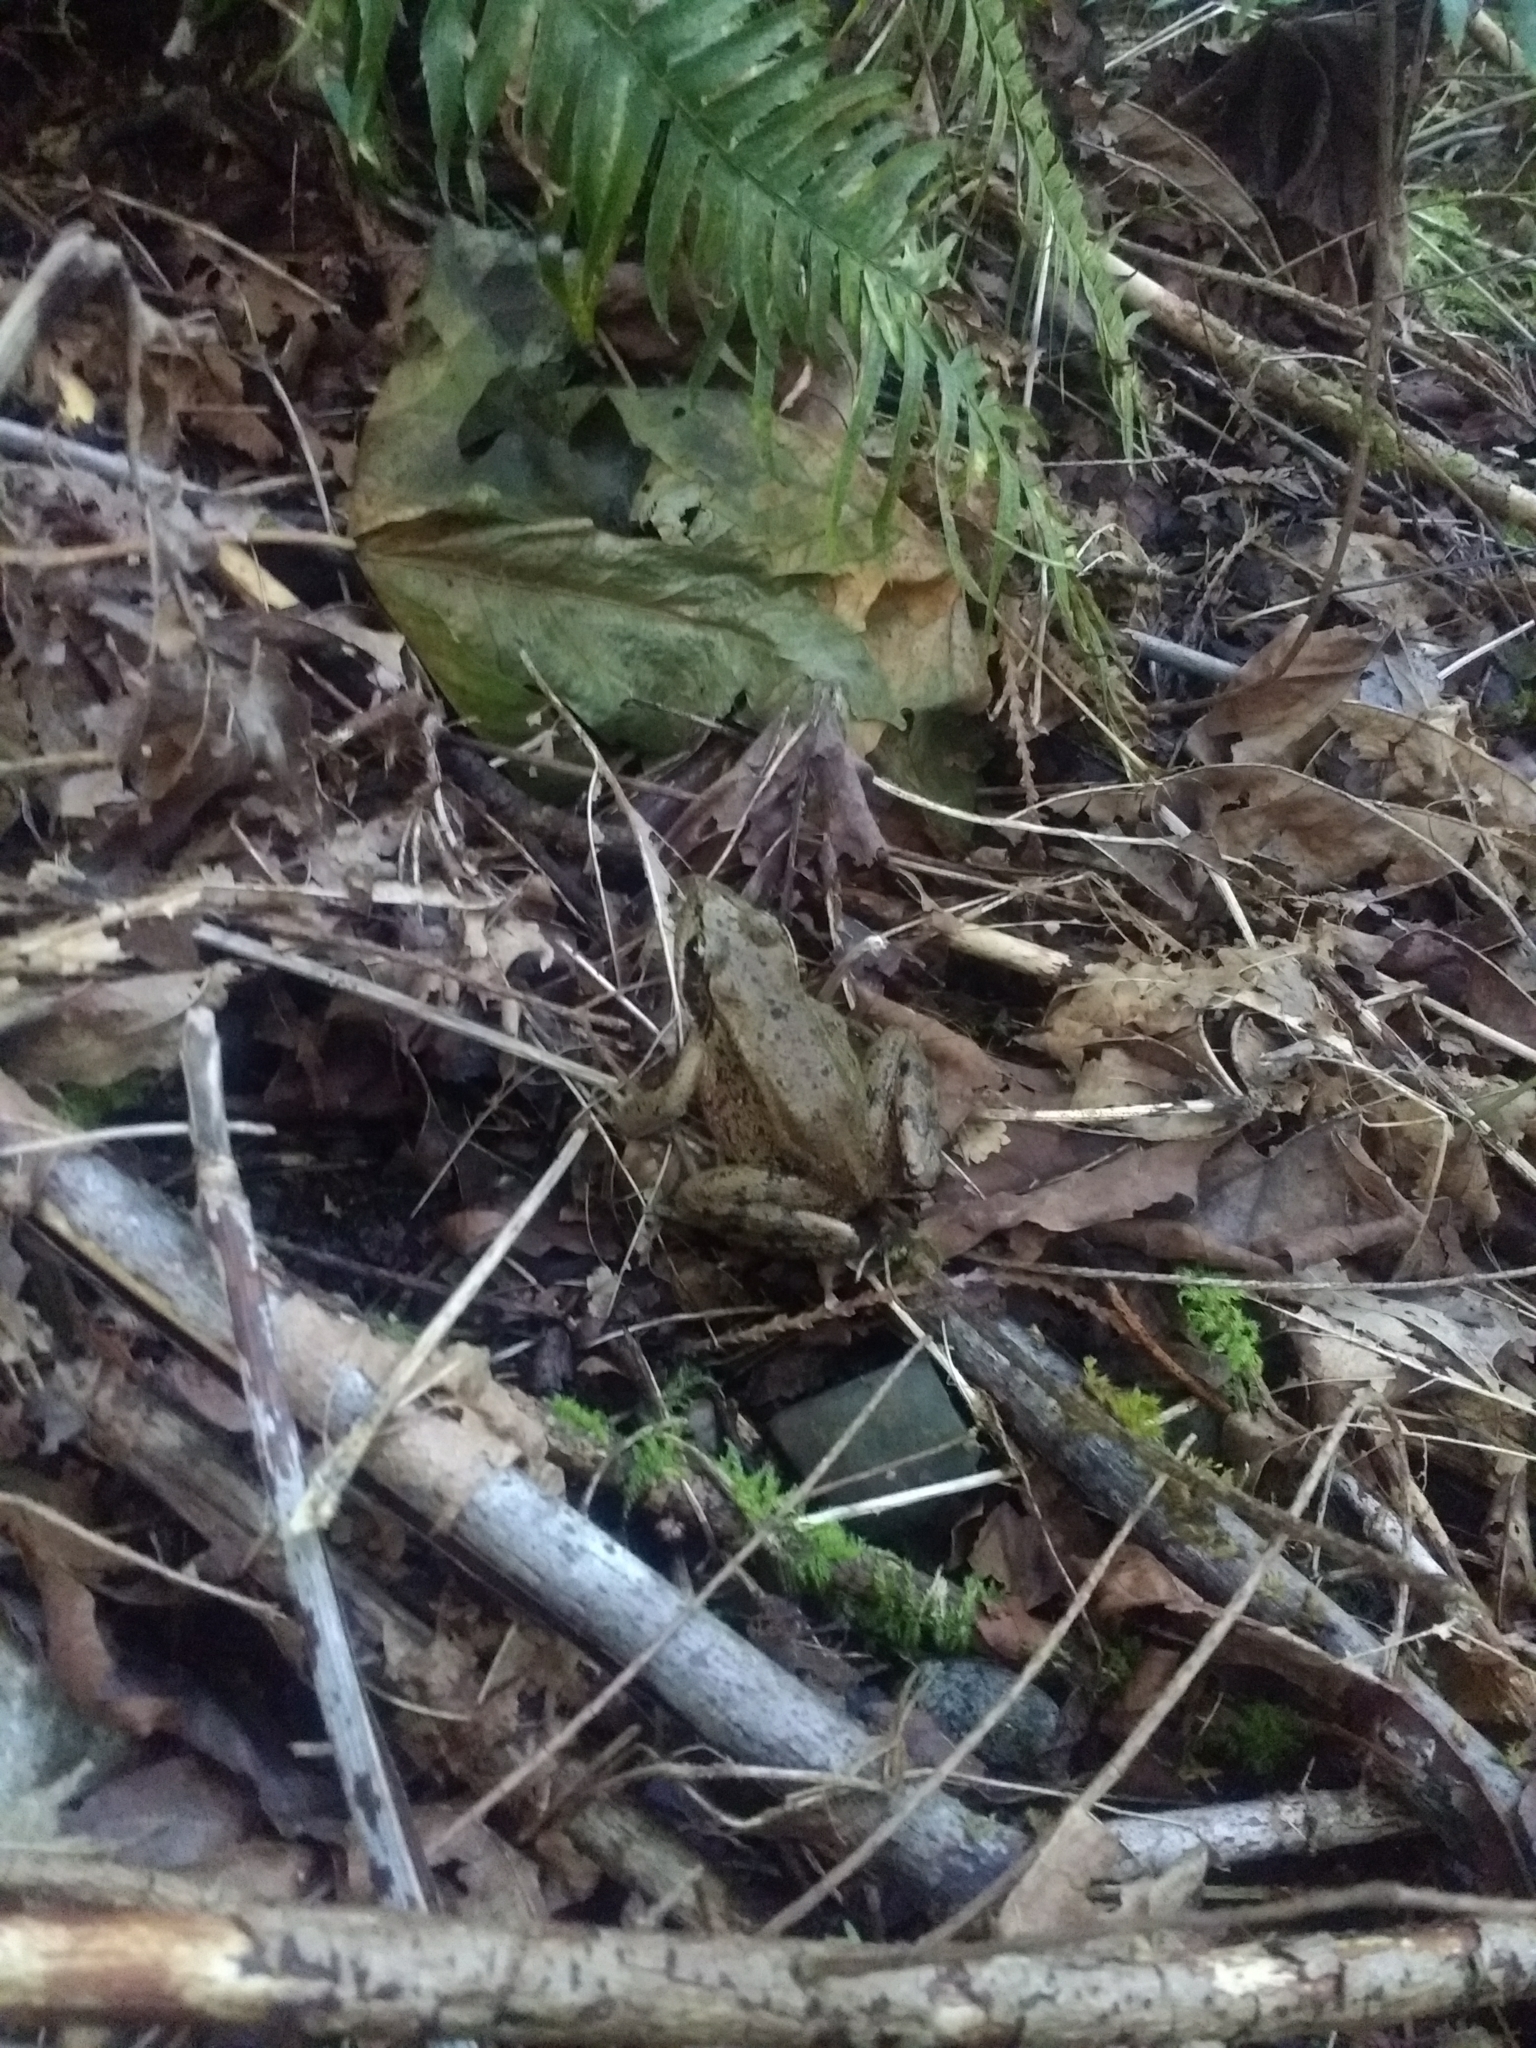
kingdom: Animalia
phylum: Chordata
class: Amphibia
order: Anura
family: Ranidae
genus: Rana
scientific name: Rana aurora
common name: Red-legged frog
